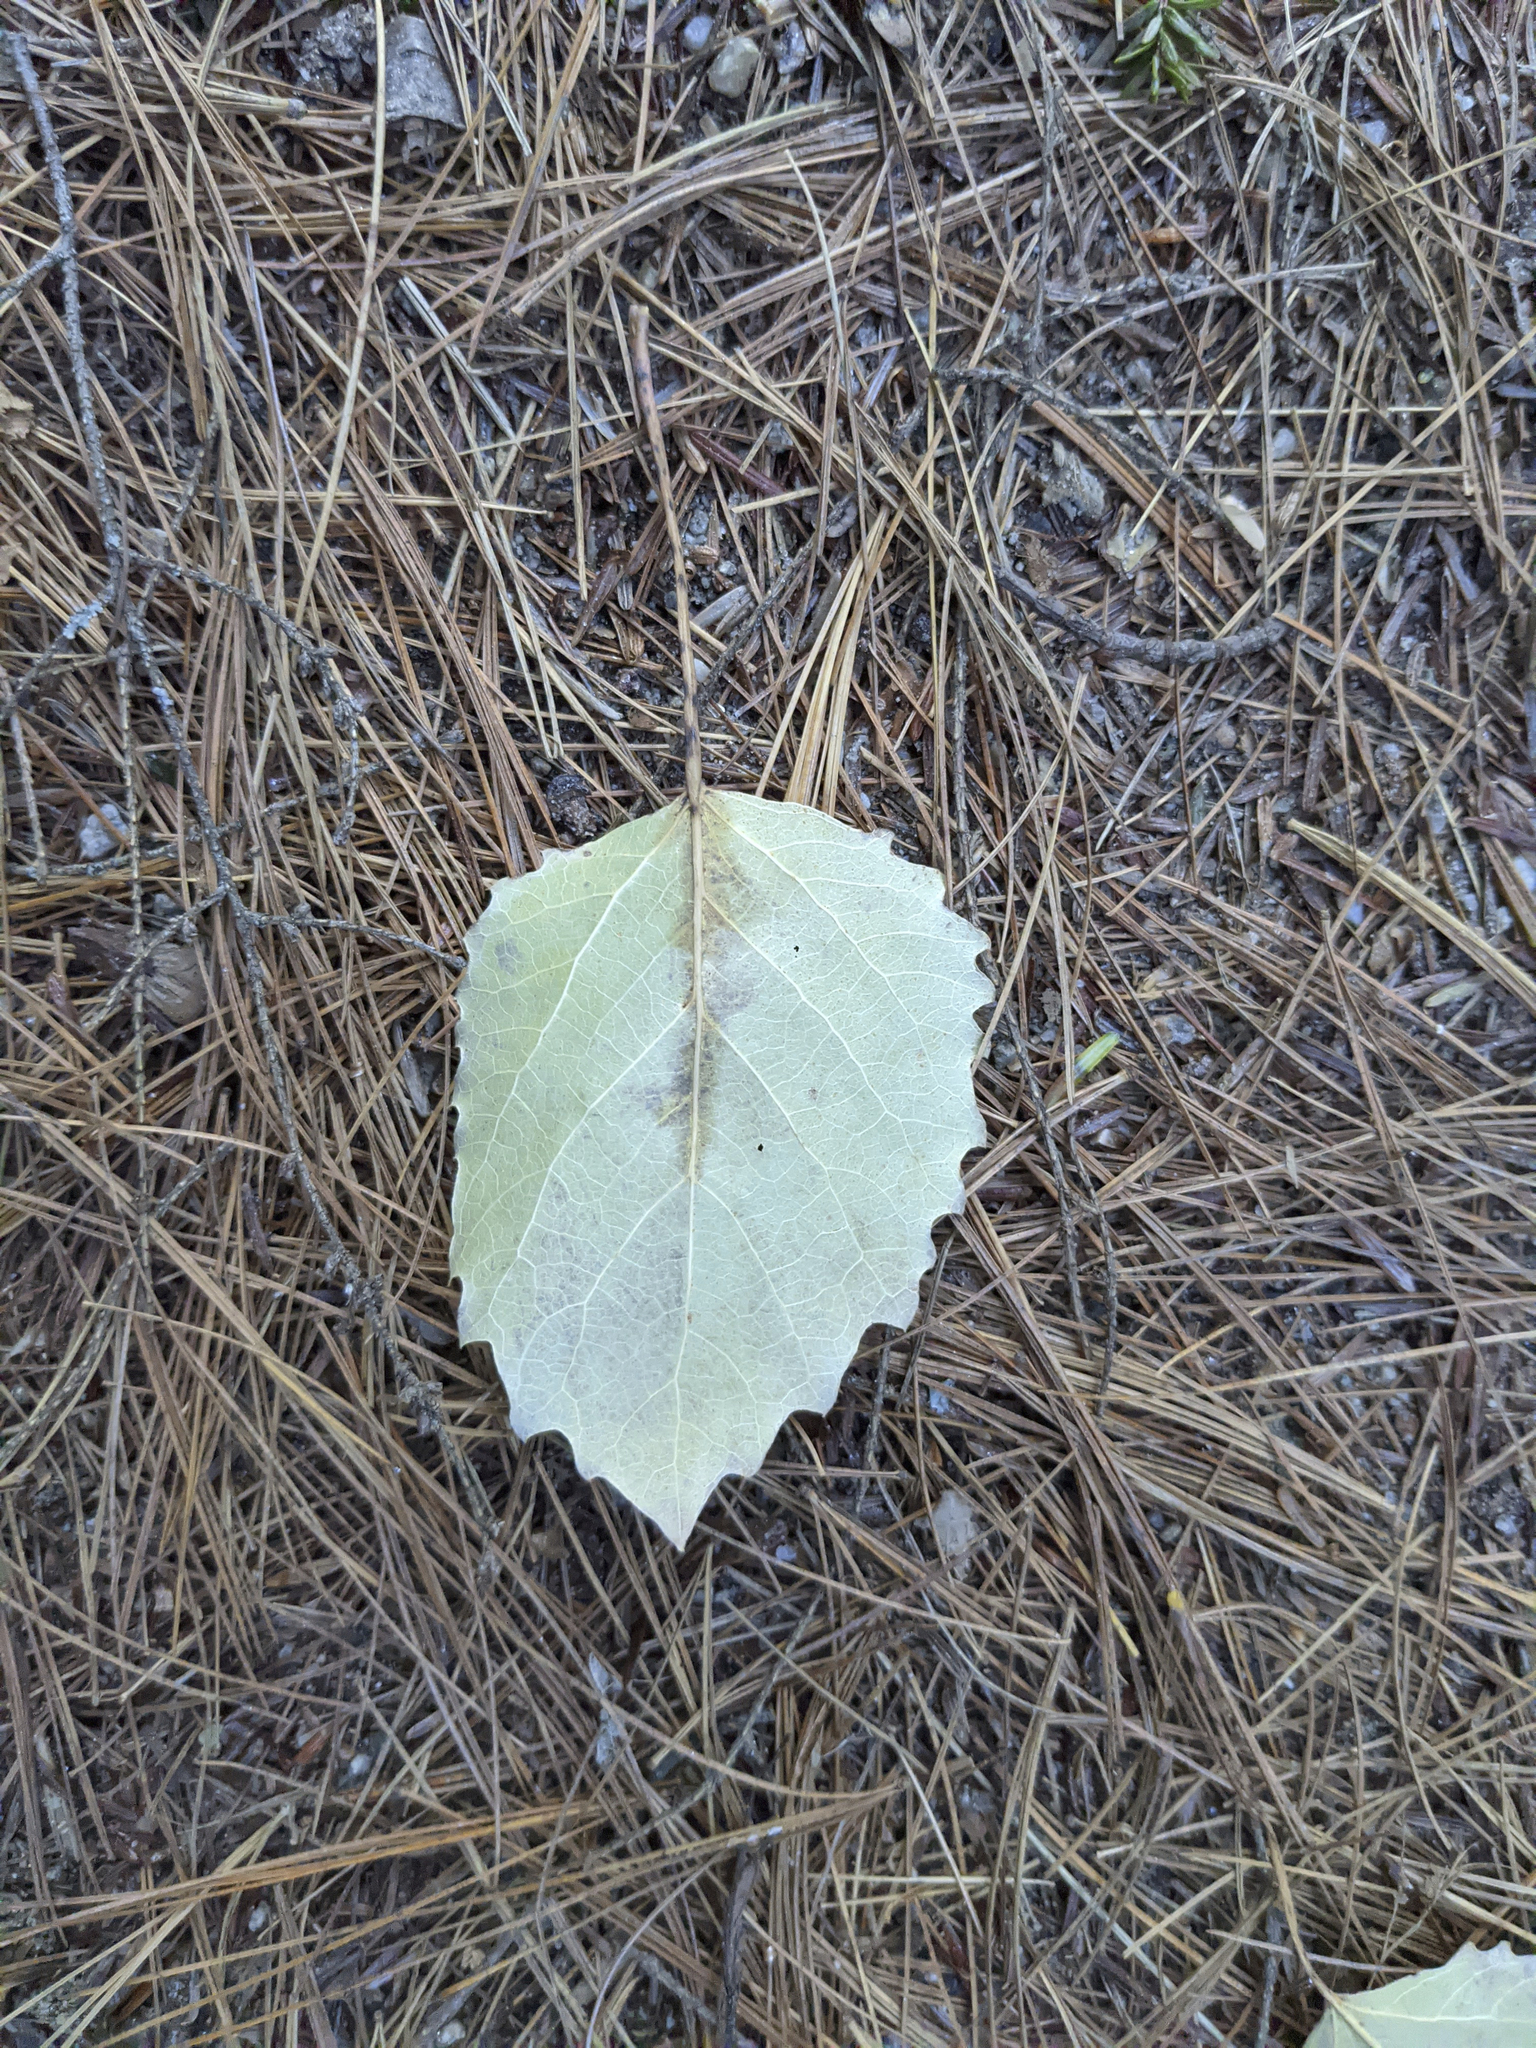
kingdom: Plantae
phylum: Tracheophyta
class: Magnoliopsida
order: Malpighiales
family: Salicaceae
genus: Populus
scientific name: Populus grandidentata
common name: Bigtooth aspen
